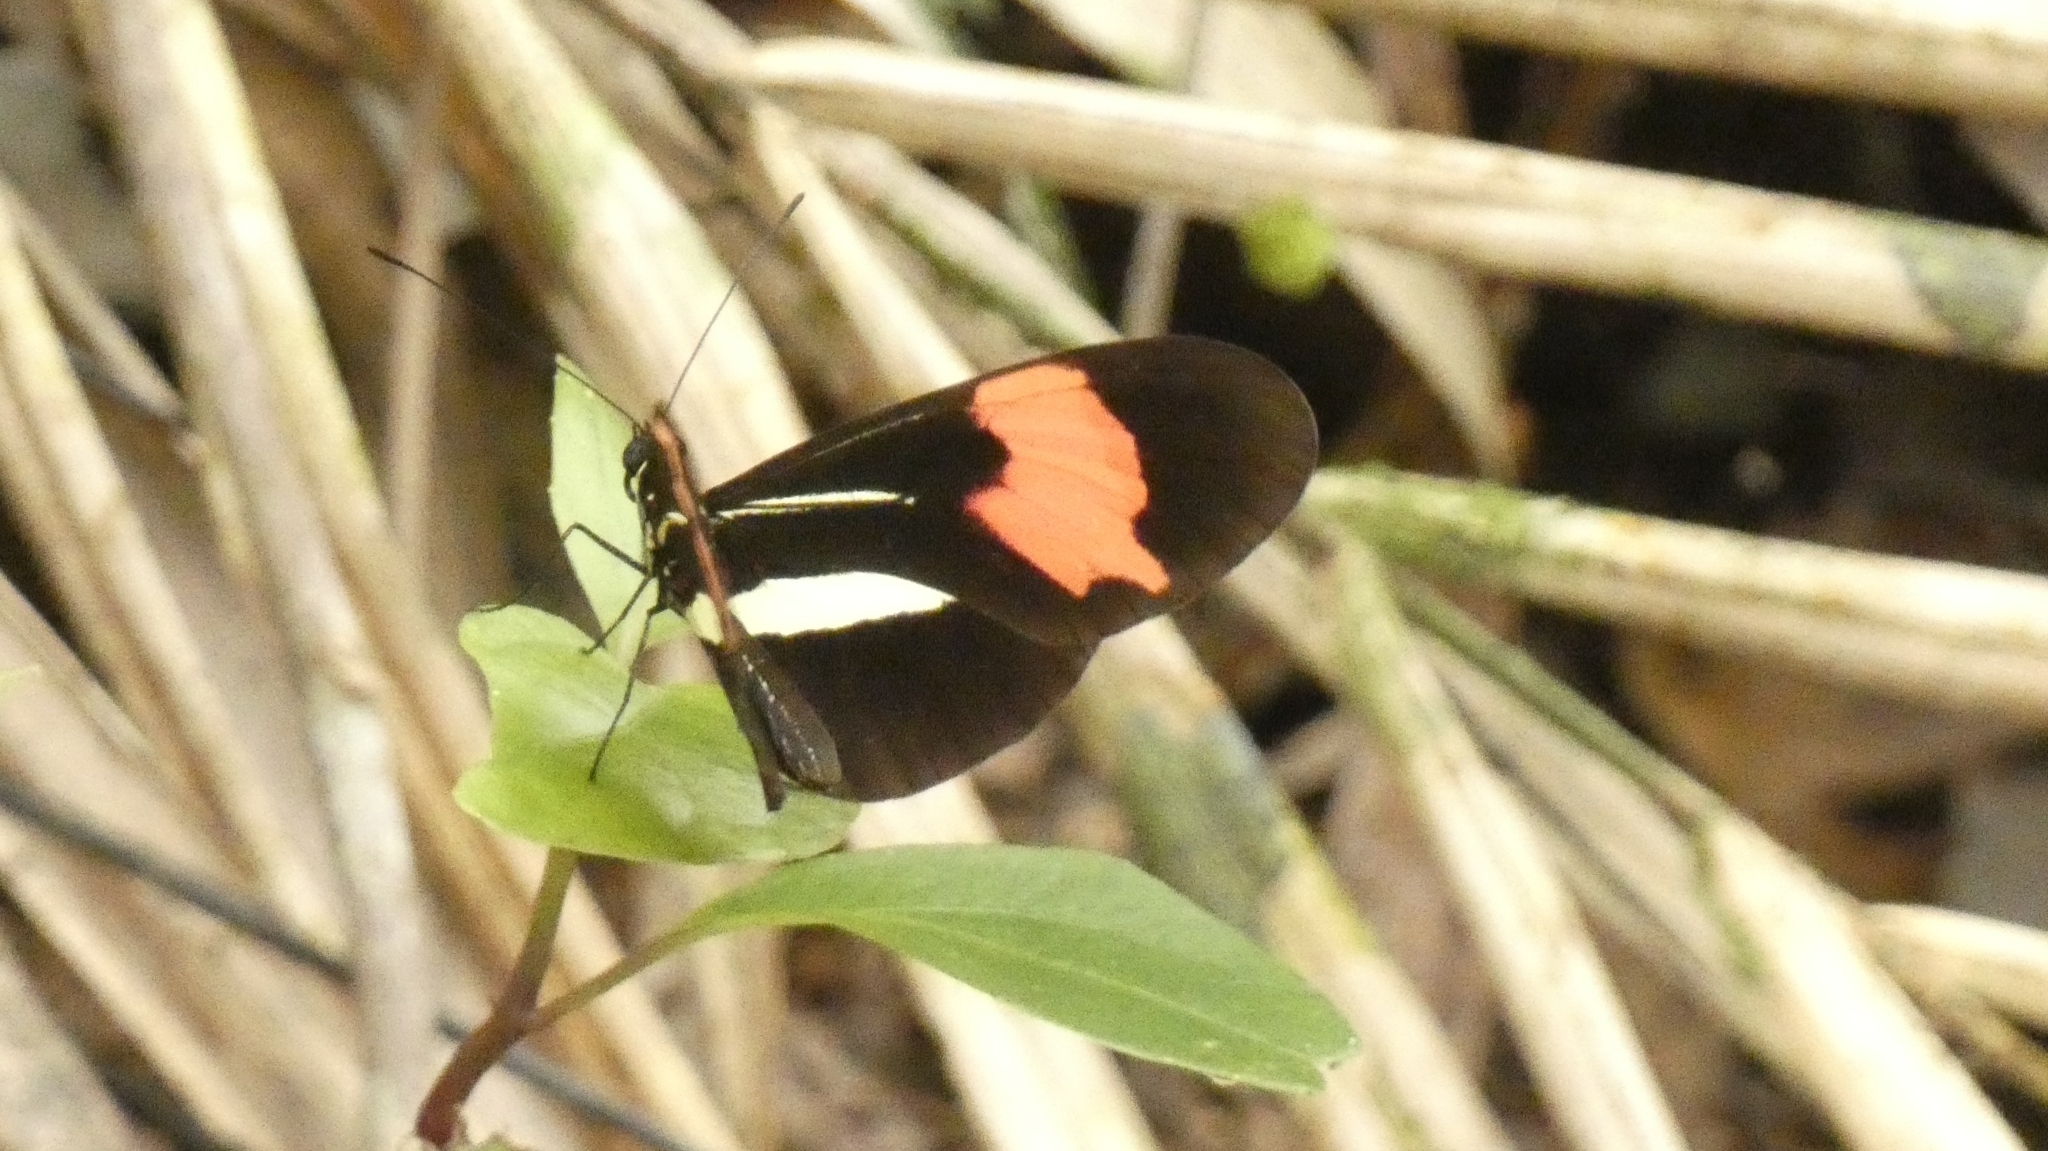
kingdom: Animalia
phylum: Arthropoda
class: Insecta
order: Lepidoptera
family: Nymphalidae
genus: Heliconius
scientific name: Heliconius erato
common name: Common patch longwing
